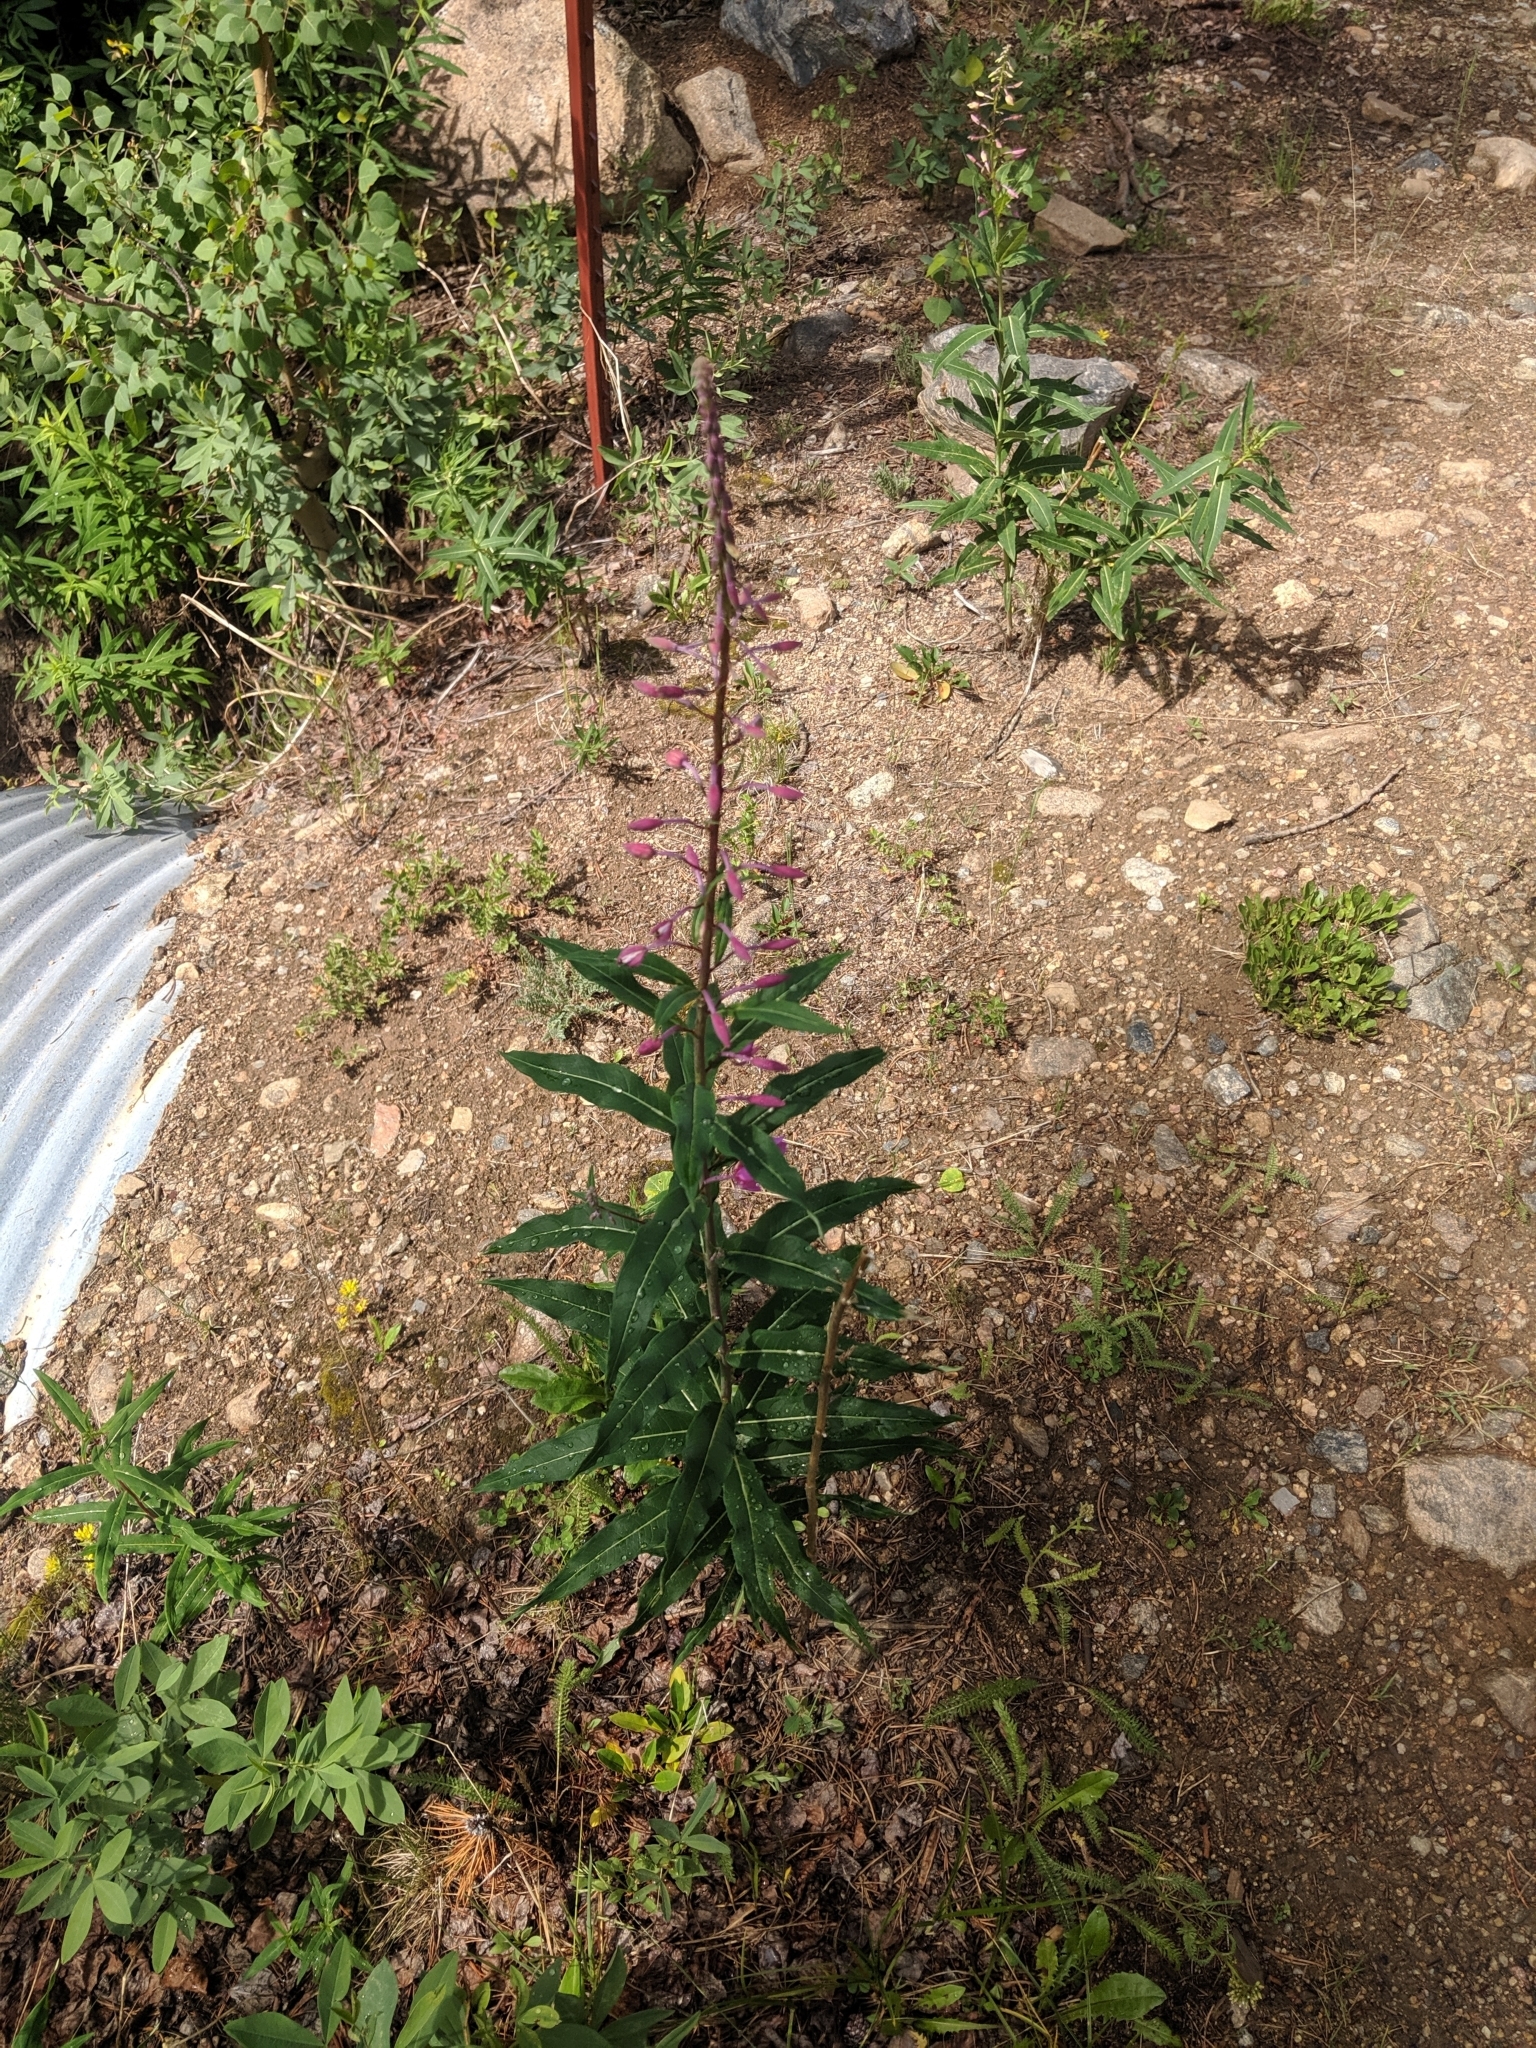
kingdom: Plantae
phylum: Tracheophyta
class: Magnoliopsida
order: Myrtales
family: Onagraceae
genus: Chamaenerion
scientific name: Chamaenerion angustifolium
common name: Fireweed
